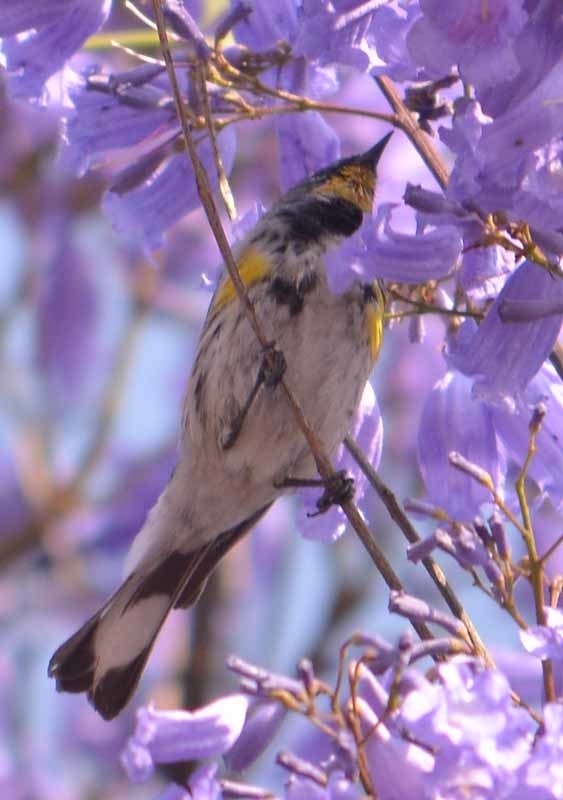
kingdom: Animalia
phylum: Chordata
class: Aves
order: Passeriformes
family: Parulidae
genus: Setophaga
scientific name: Setophaga coronata
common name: Myrtle warbler
